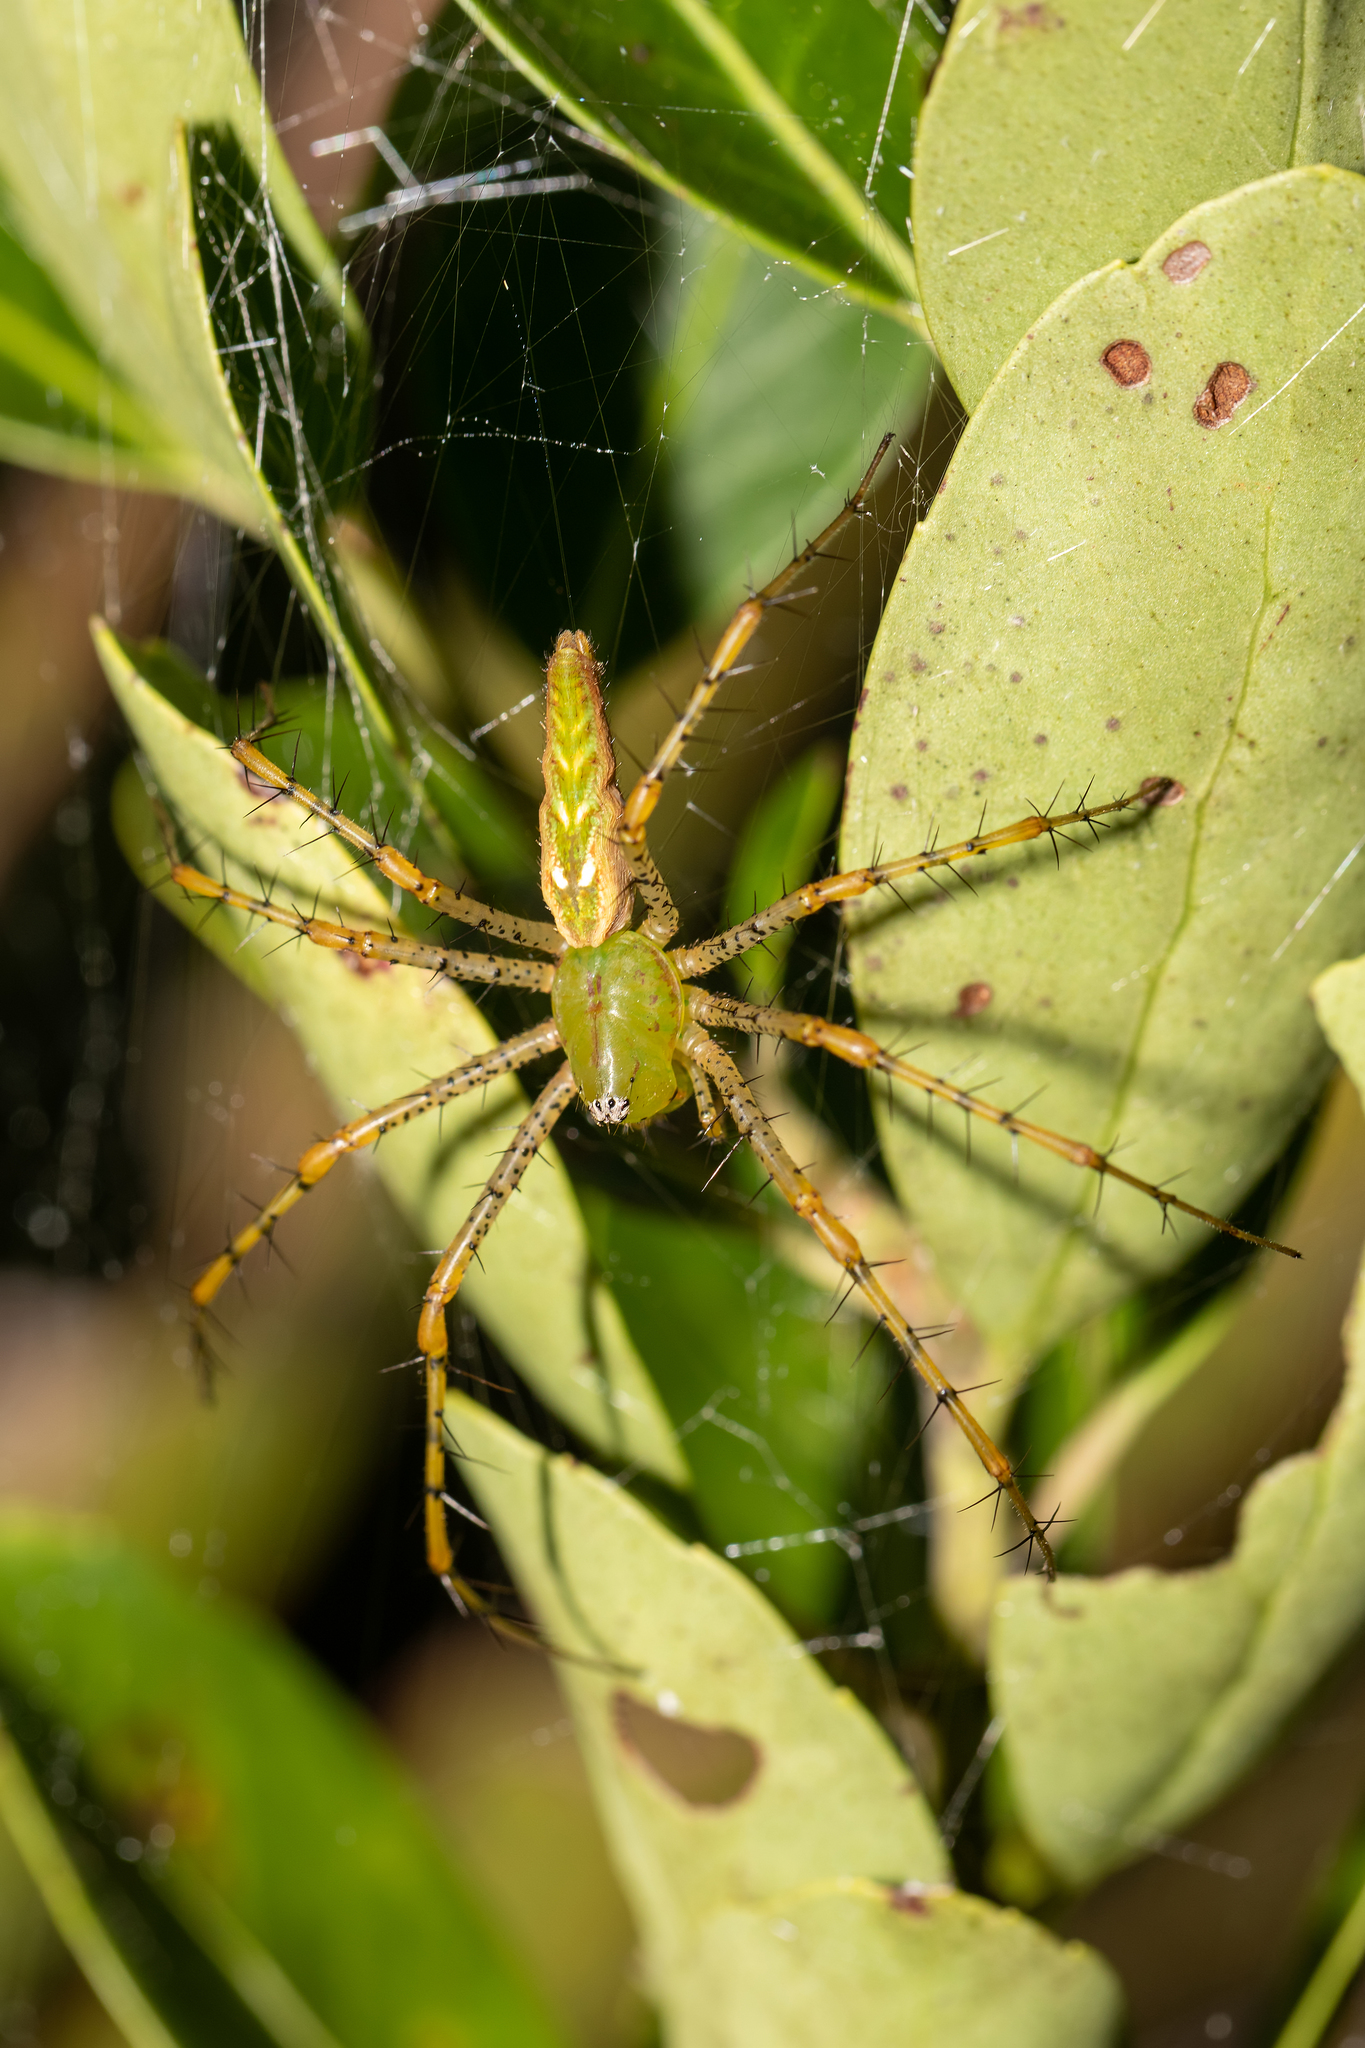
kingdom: Animalia
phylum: Arthropoda
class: Arachnida
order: Araneae
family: Oxyopidae
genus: Peucetia
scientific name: Peucetia viridans
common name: Lynx spiders
